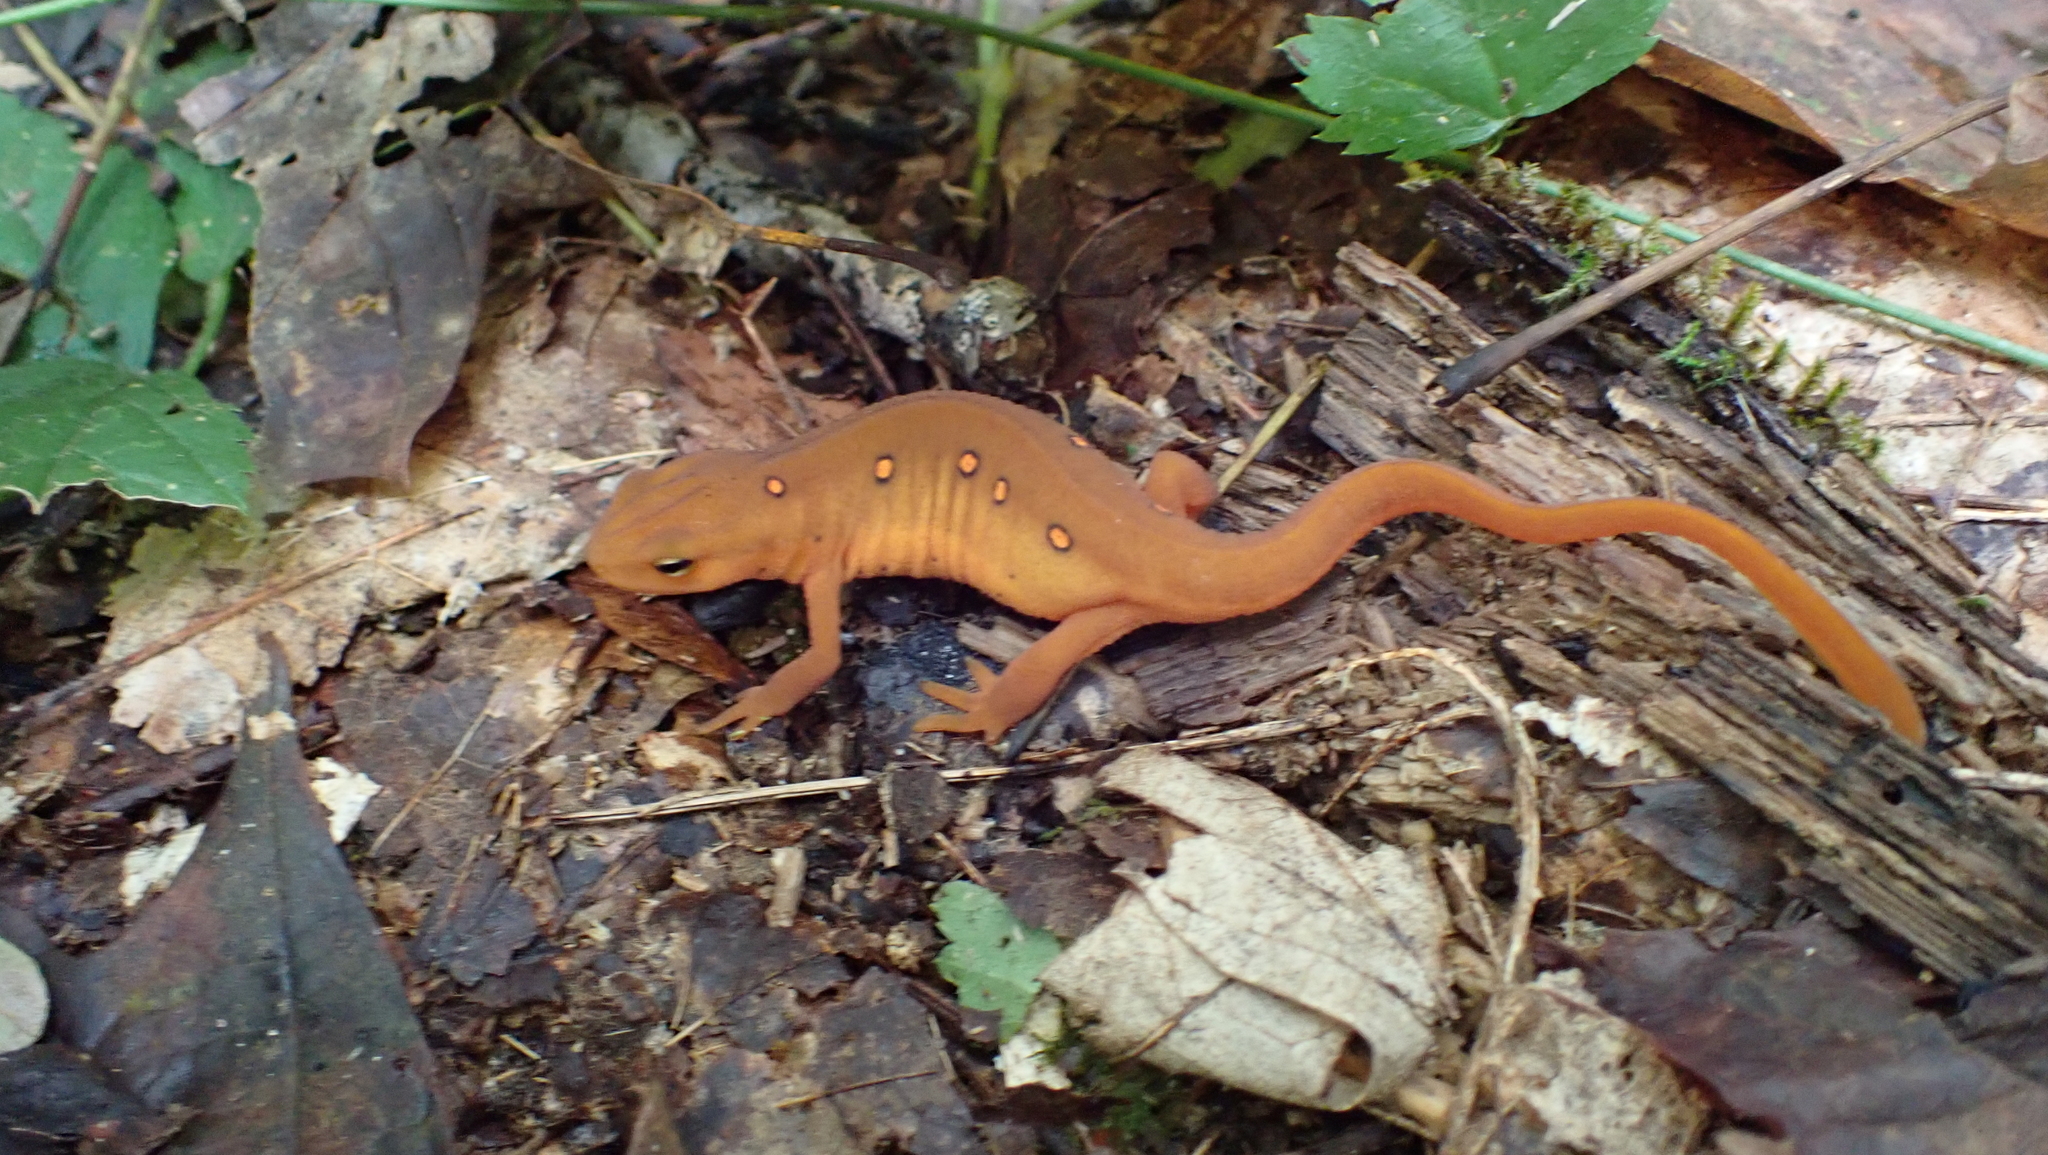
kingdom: Animalia
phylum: Chordata
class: Amphibia
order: Caudata
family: Salamandridae
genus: Notophthalmus
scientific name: Notophthalmus viridescens
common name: Eastern newt
